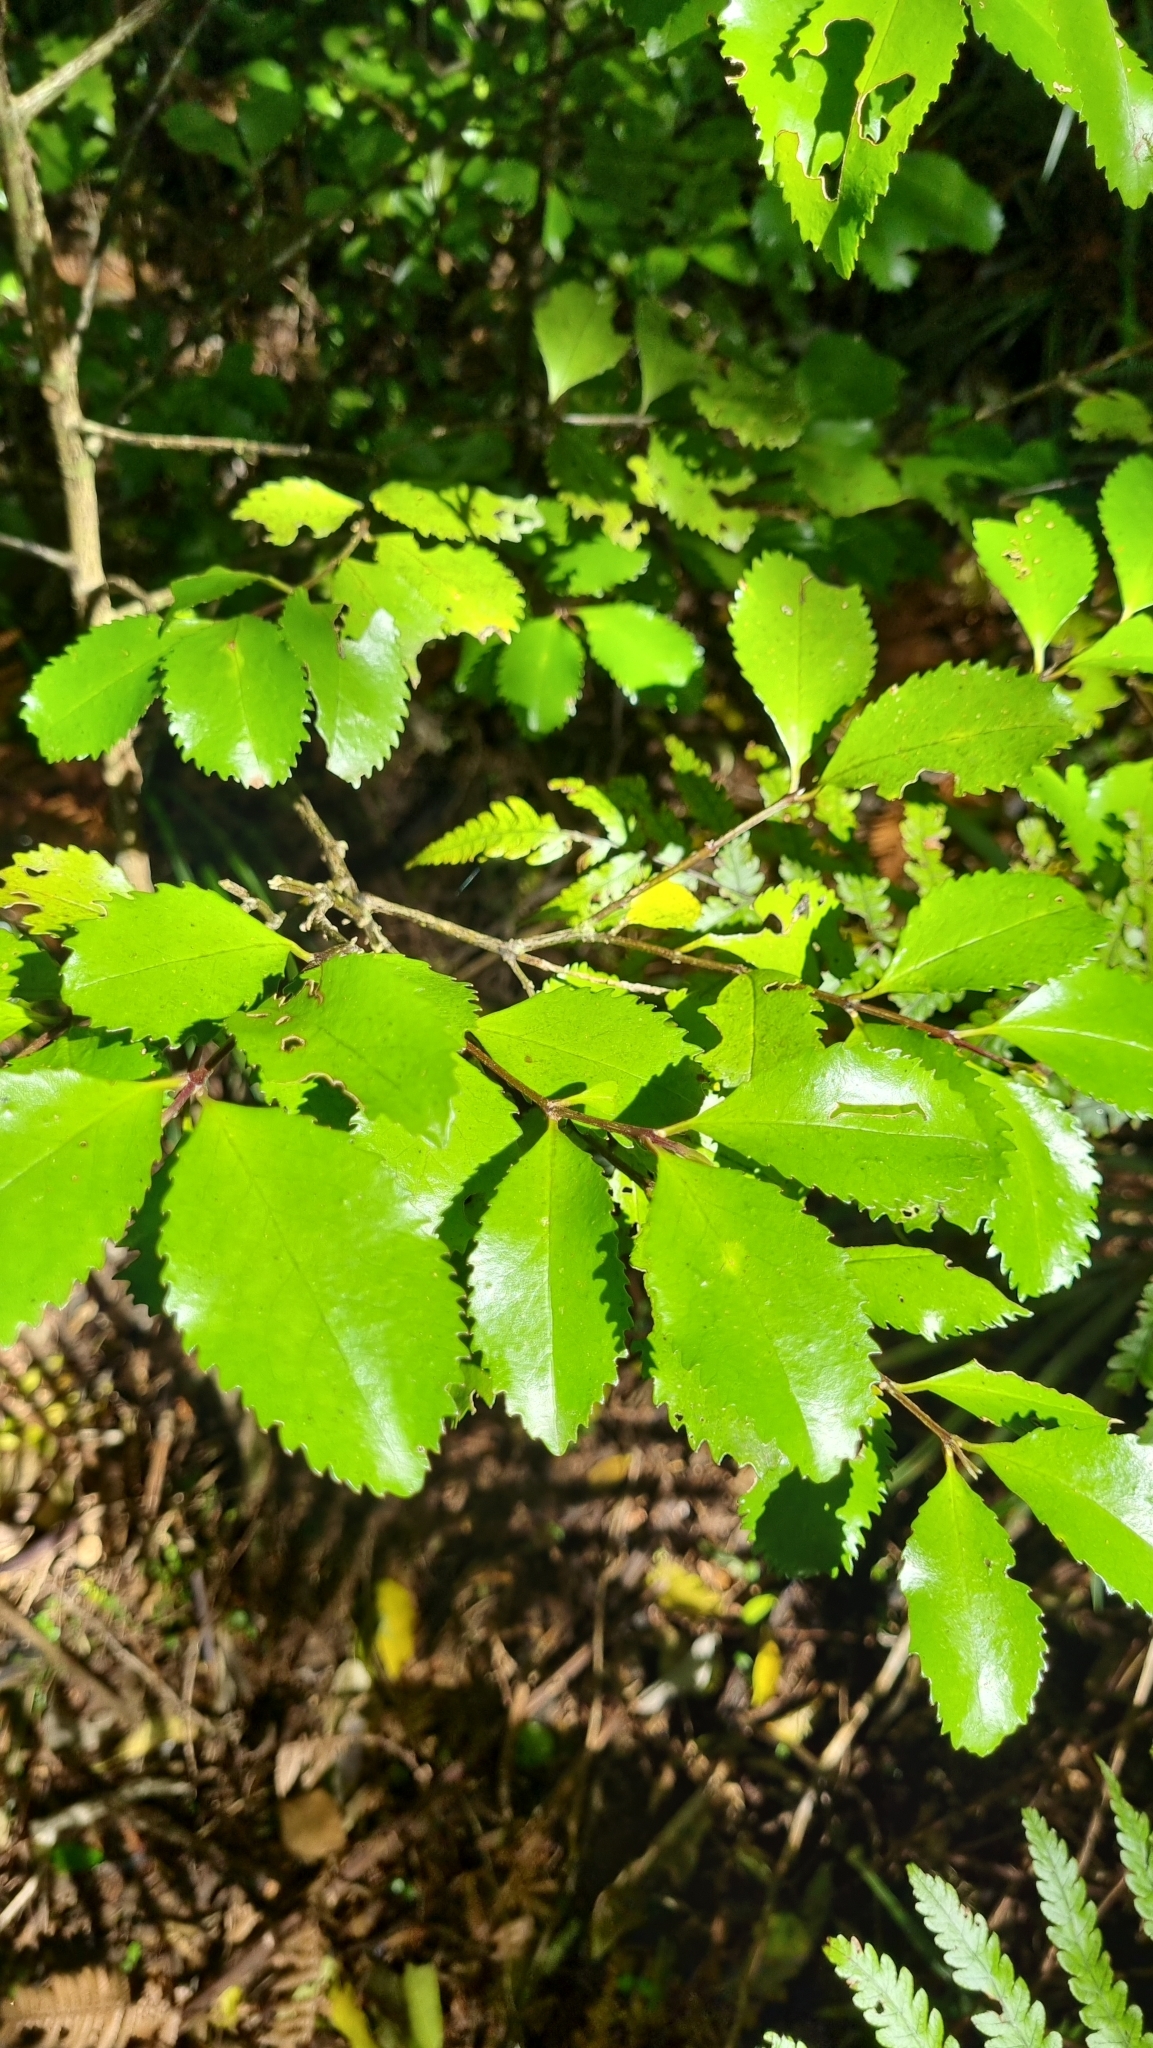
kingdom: Plantae
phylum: Tracheophyta
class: Magnoliopsida
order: Laurales
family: Atherospermataceae
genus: Laurelia
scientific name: Laurelia novae-zelandiae
